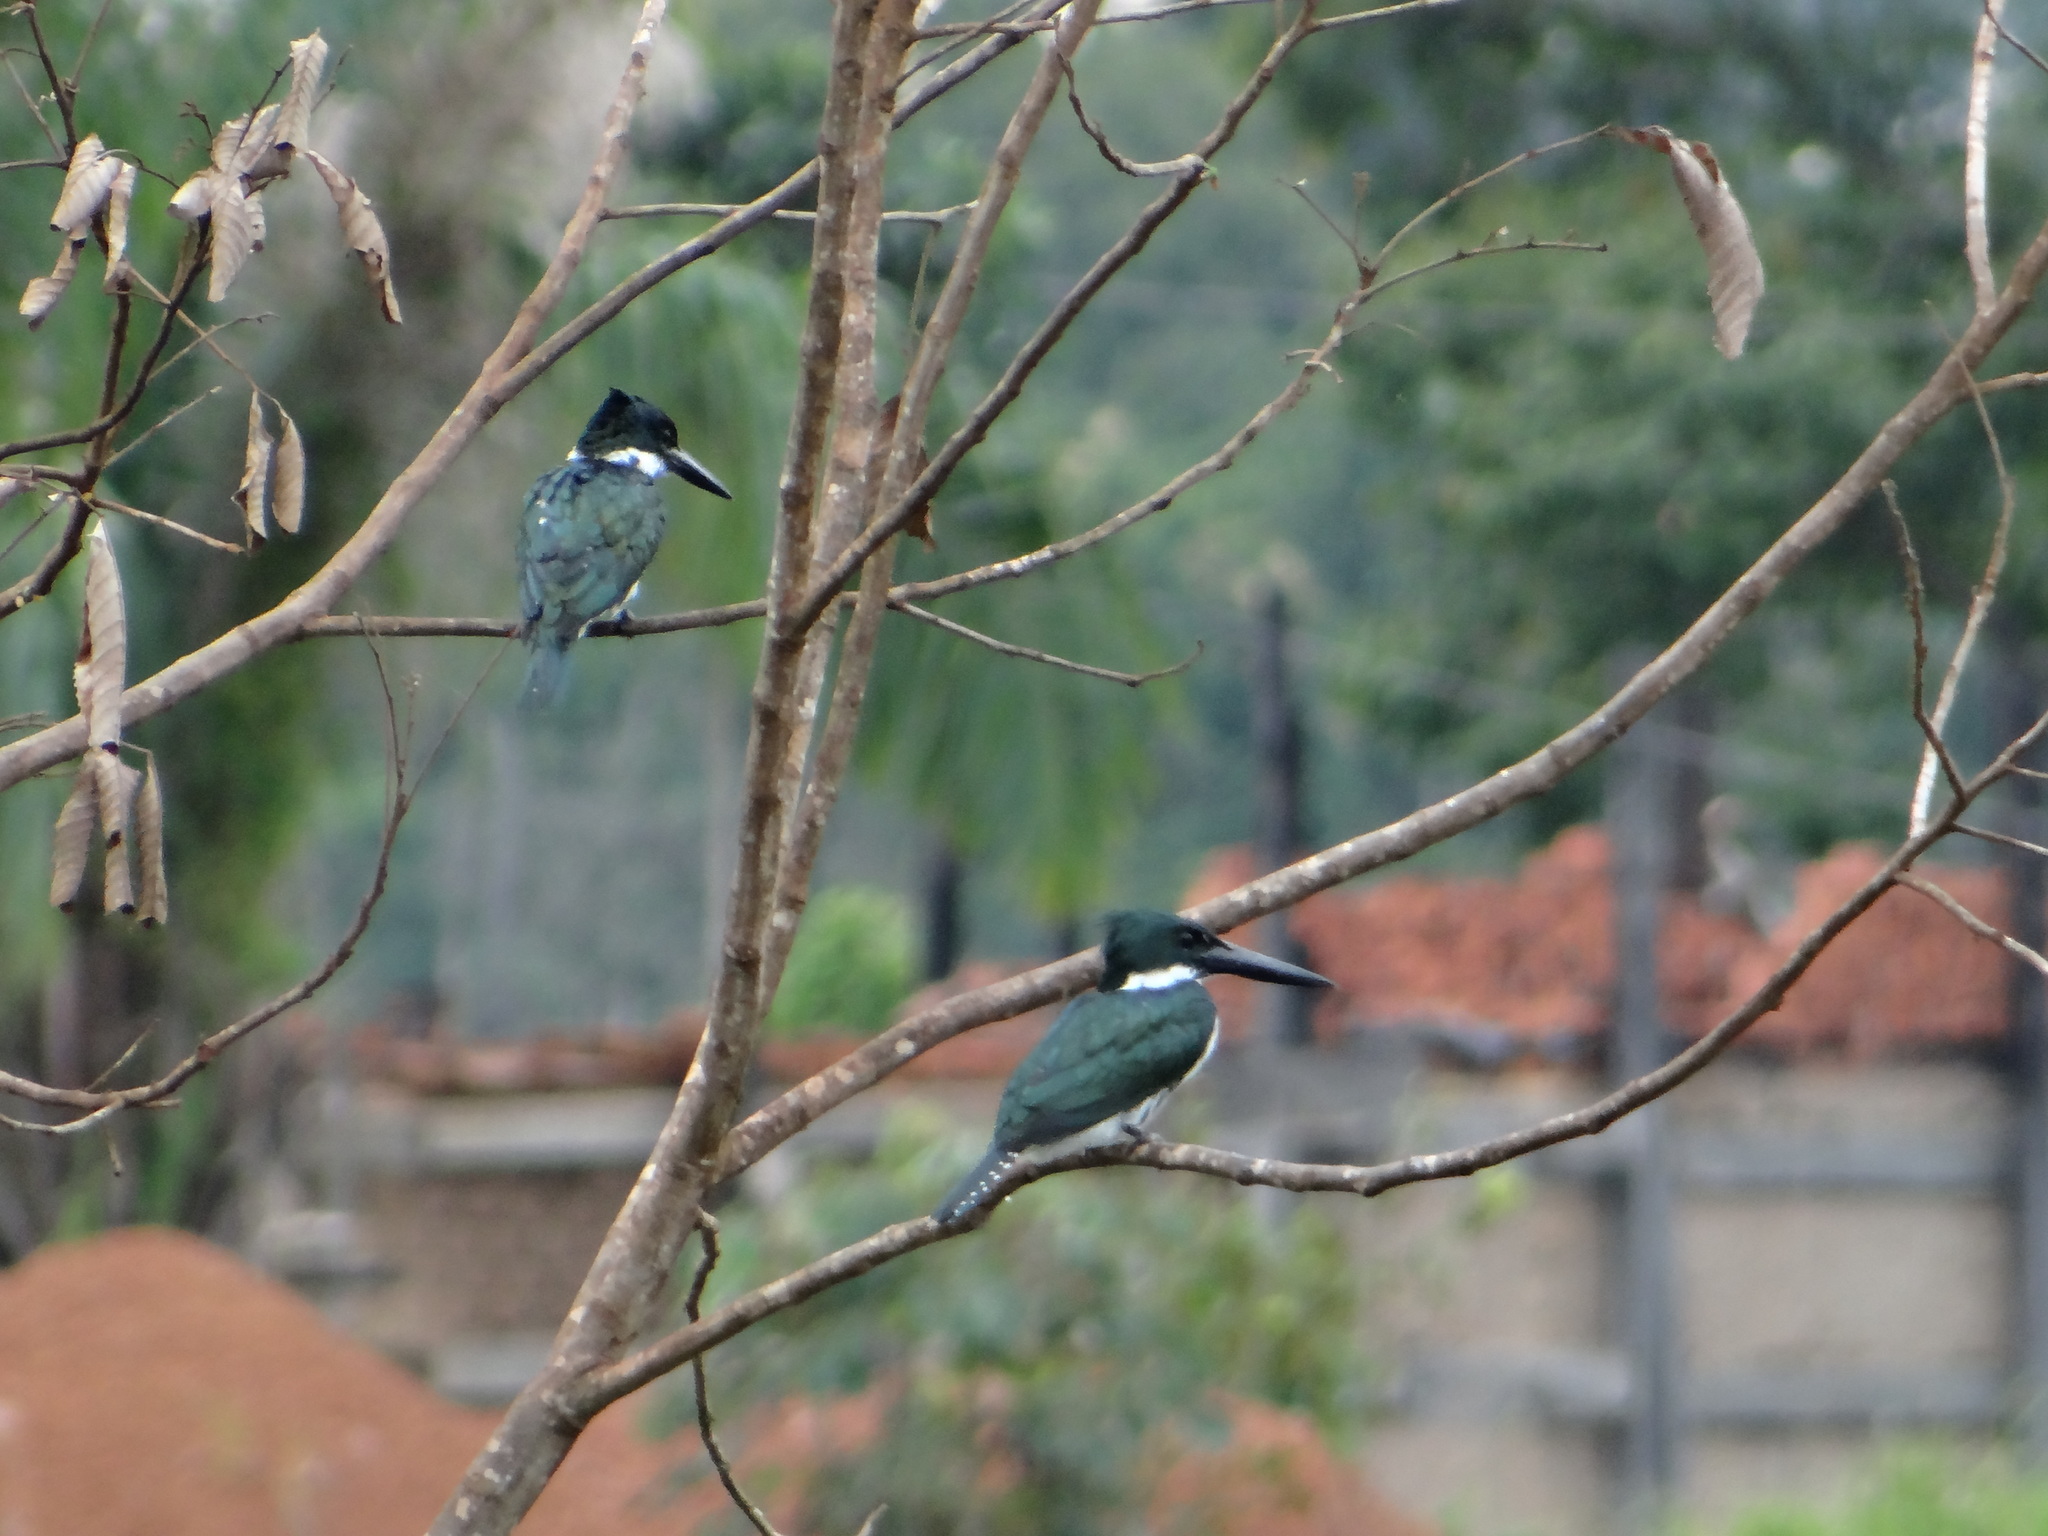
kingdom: Animalia
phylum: Chordata
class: Aves
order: Coraciiformes
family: Alcedinidae
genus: Chloroceryle
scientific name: Chloroceryle amazona
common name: Amazon kingfisher
